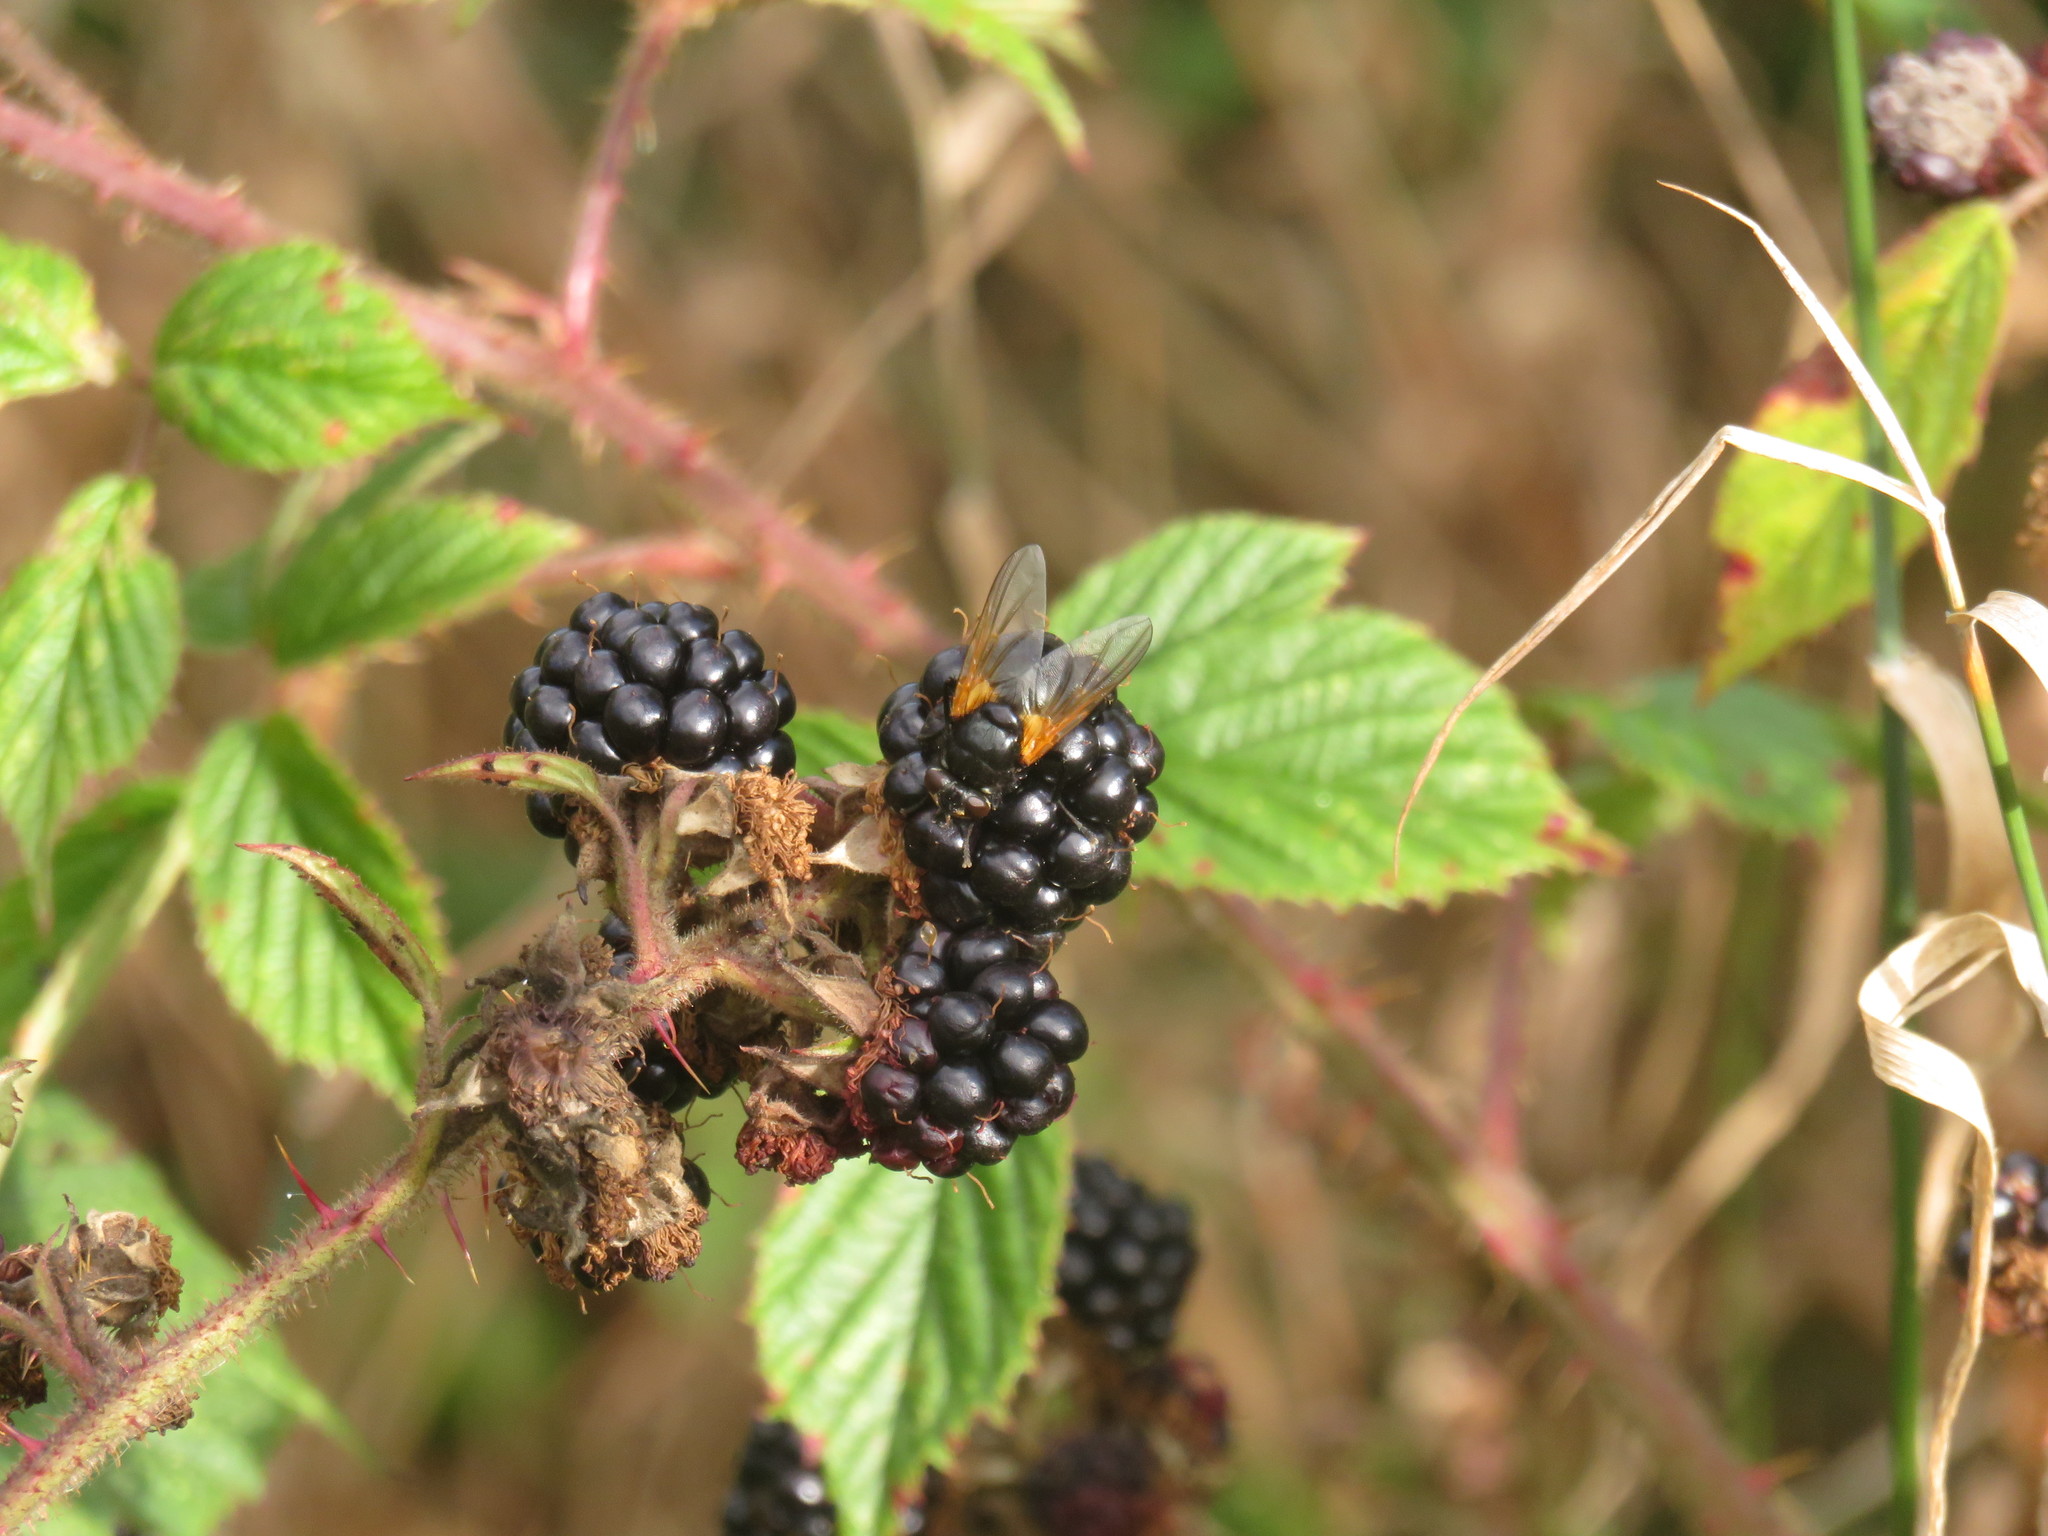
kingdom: Animalia
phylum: Arthropoda
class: Insecta
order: Diptera
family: Muscidae
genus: Mesembrina
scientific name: Mesembrina meridiana
